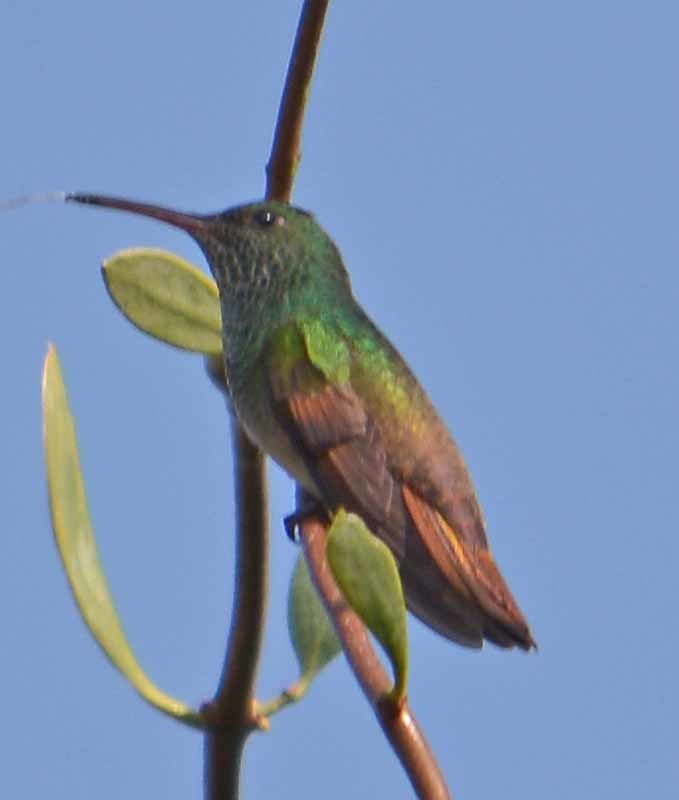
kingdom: Animalia
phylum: Chordata
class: Aves
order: Apodiformes
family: Trochilidae
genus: Saucerottia
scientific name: Saucerottia beryllina
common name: Berylline hummingbird
